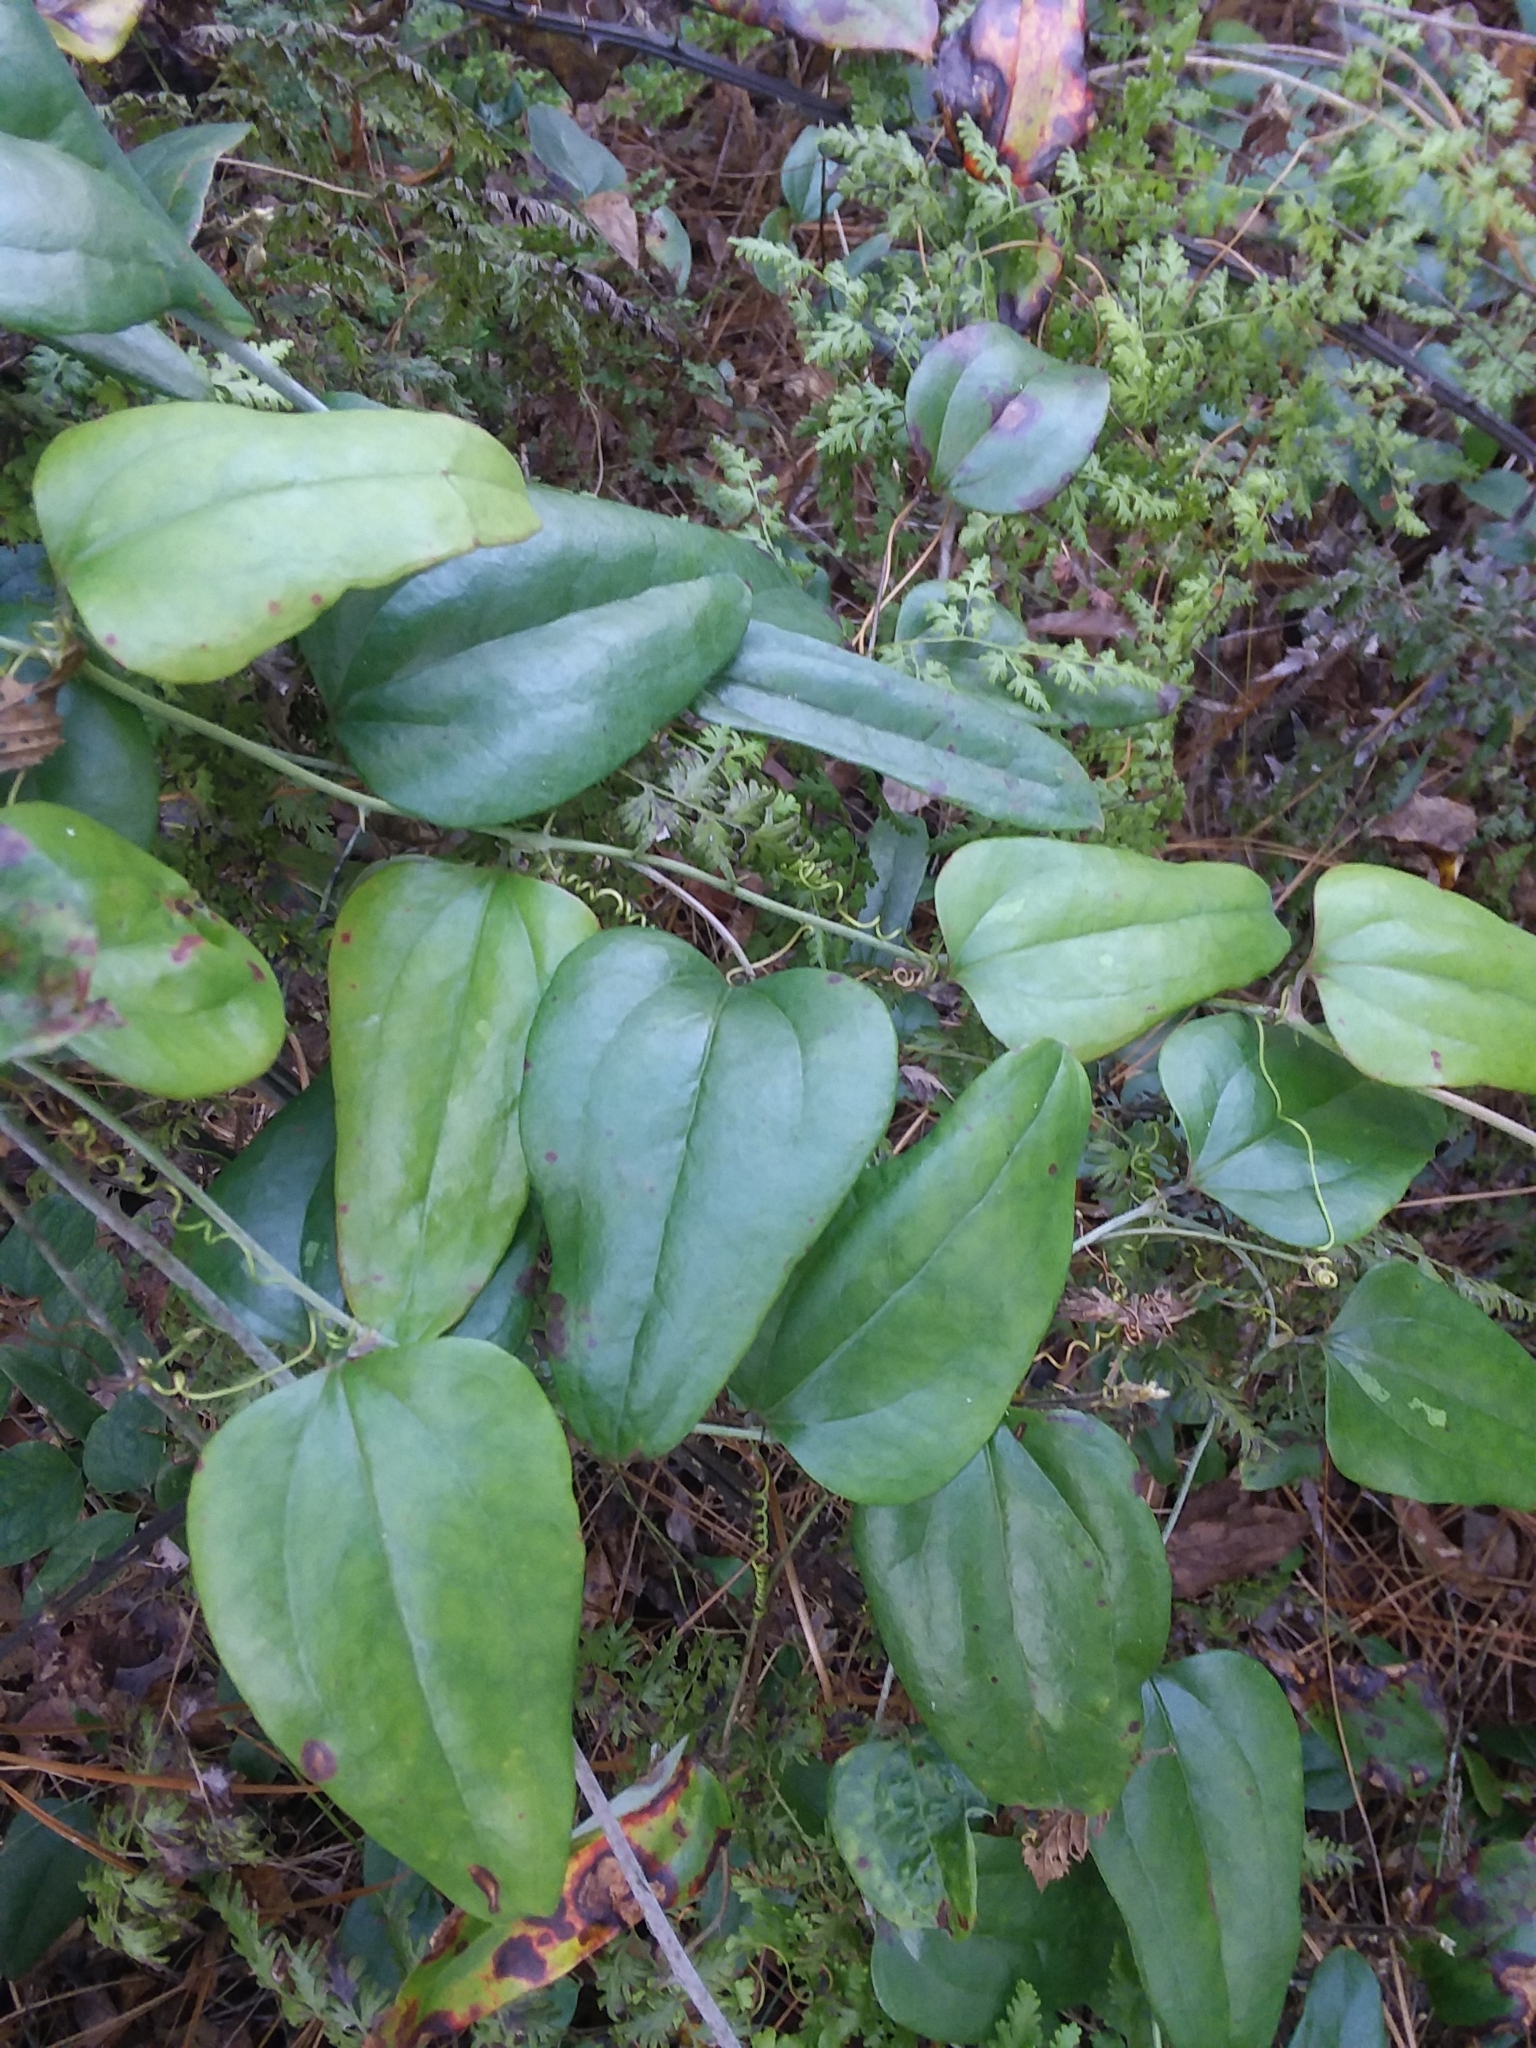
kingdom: Plantae
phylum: Tracheophyta
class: Liliopsida
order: Liliales
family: Smilacaceae
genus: Smilax
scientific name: Smilax glauca
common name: Cat greenbrier
